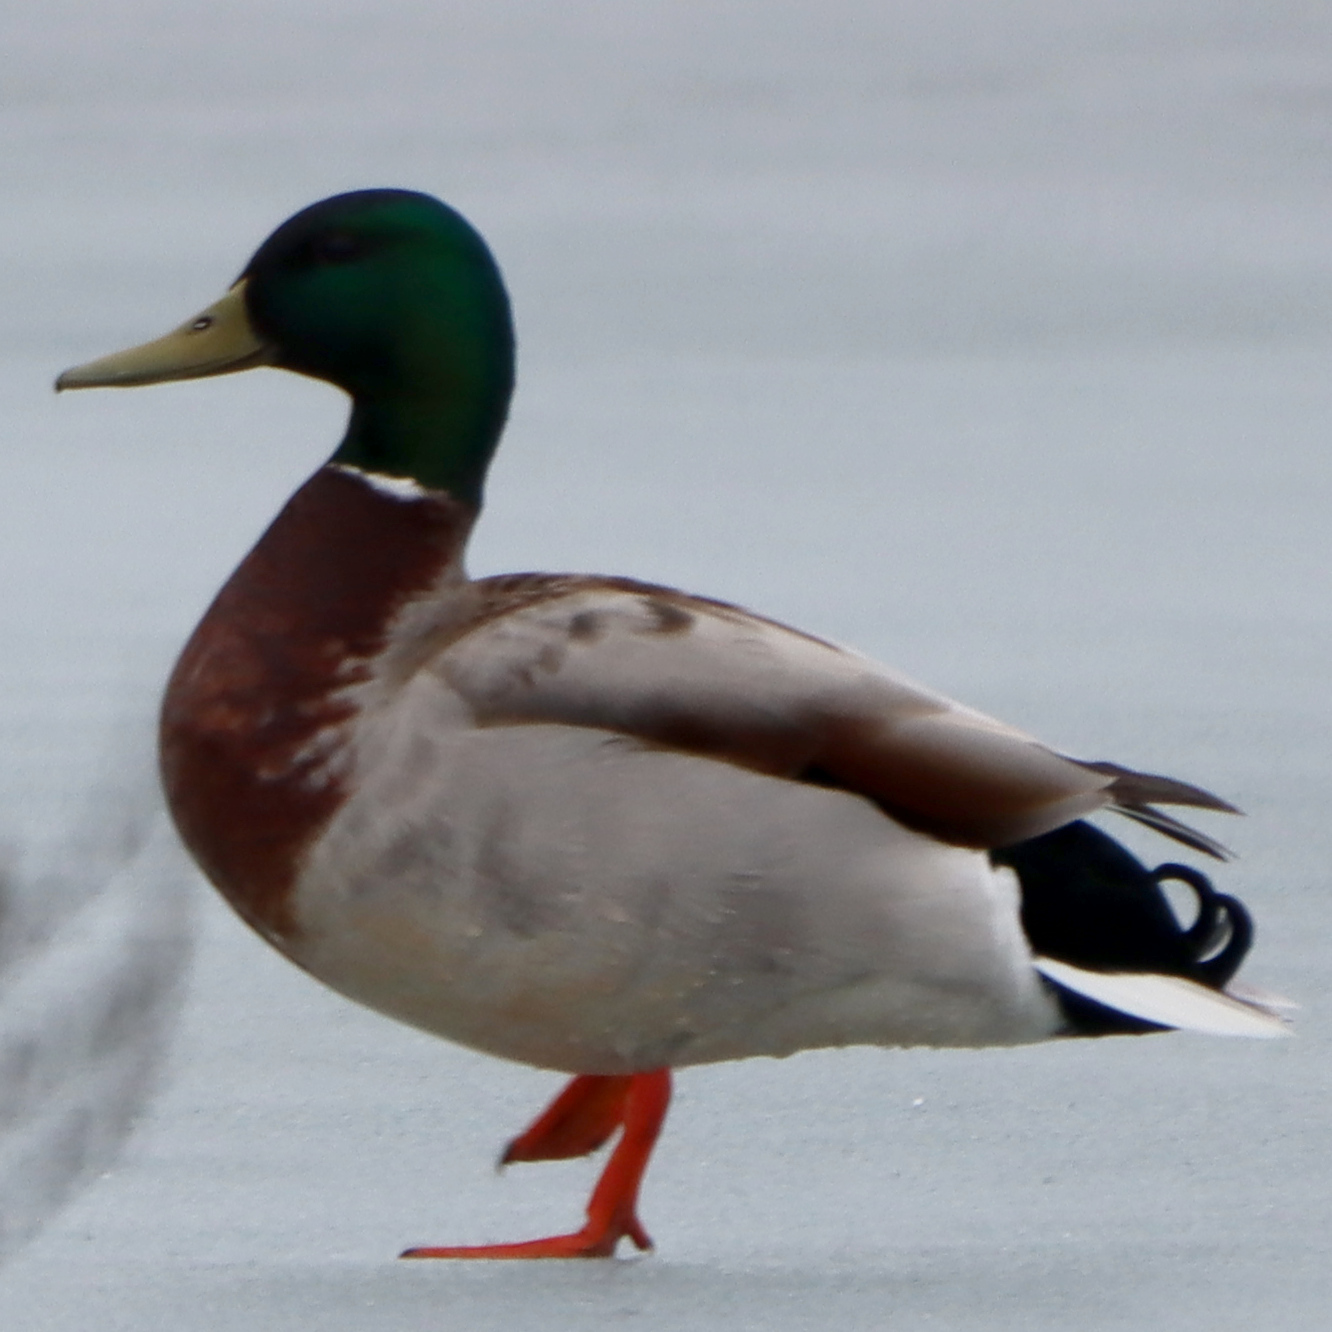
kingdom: Animalia
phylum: Chordata
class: Aves
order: Anseriformes
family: Anatidae
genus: Anas
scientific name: Anas platyrhynchos
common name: Mallard
